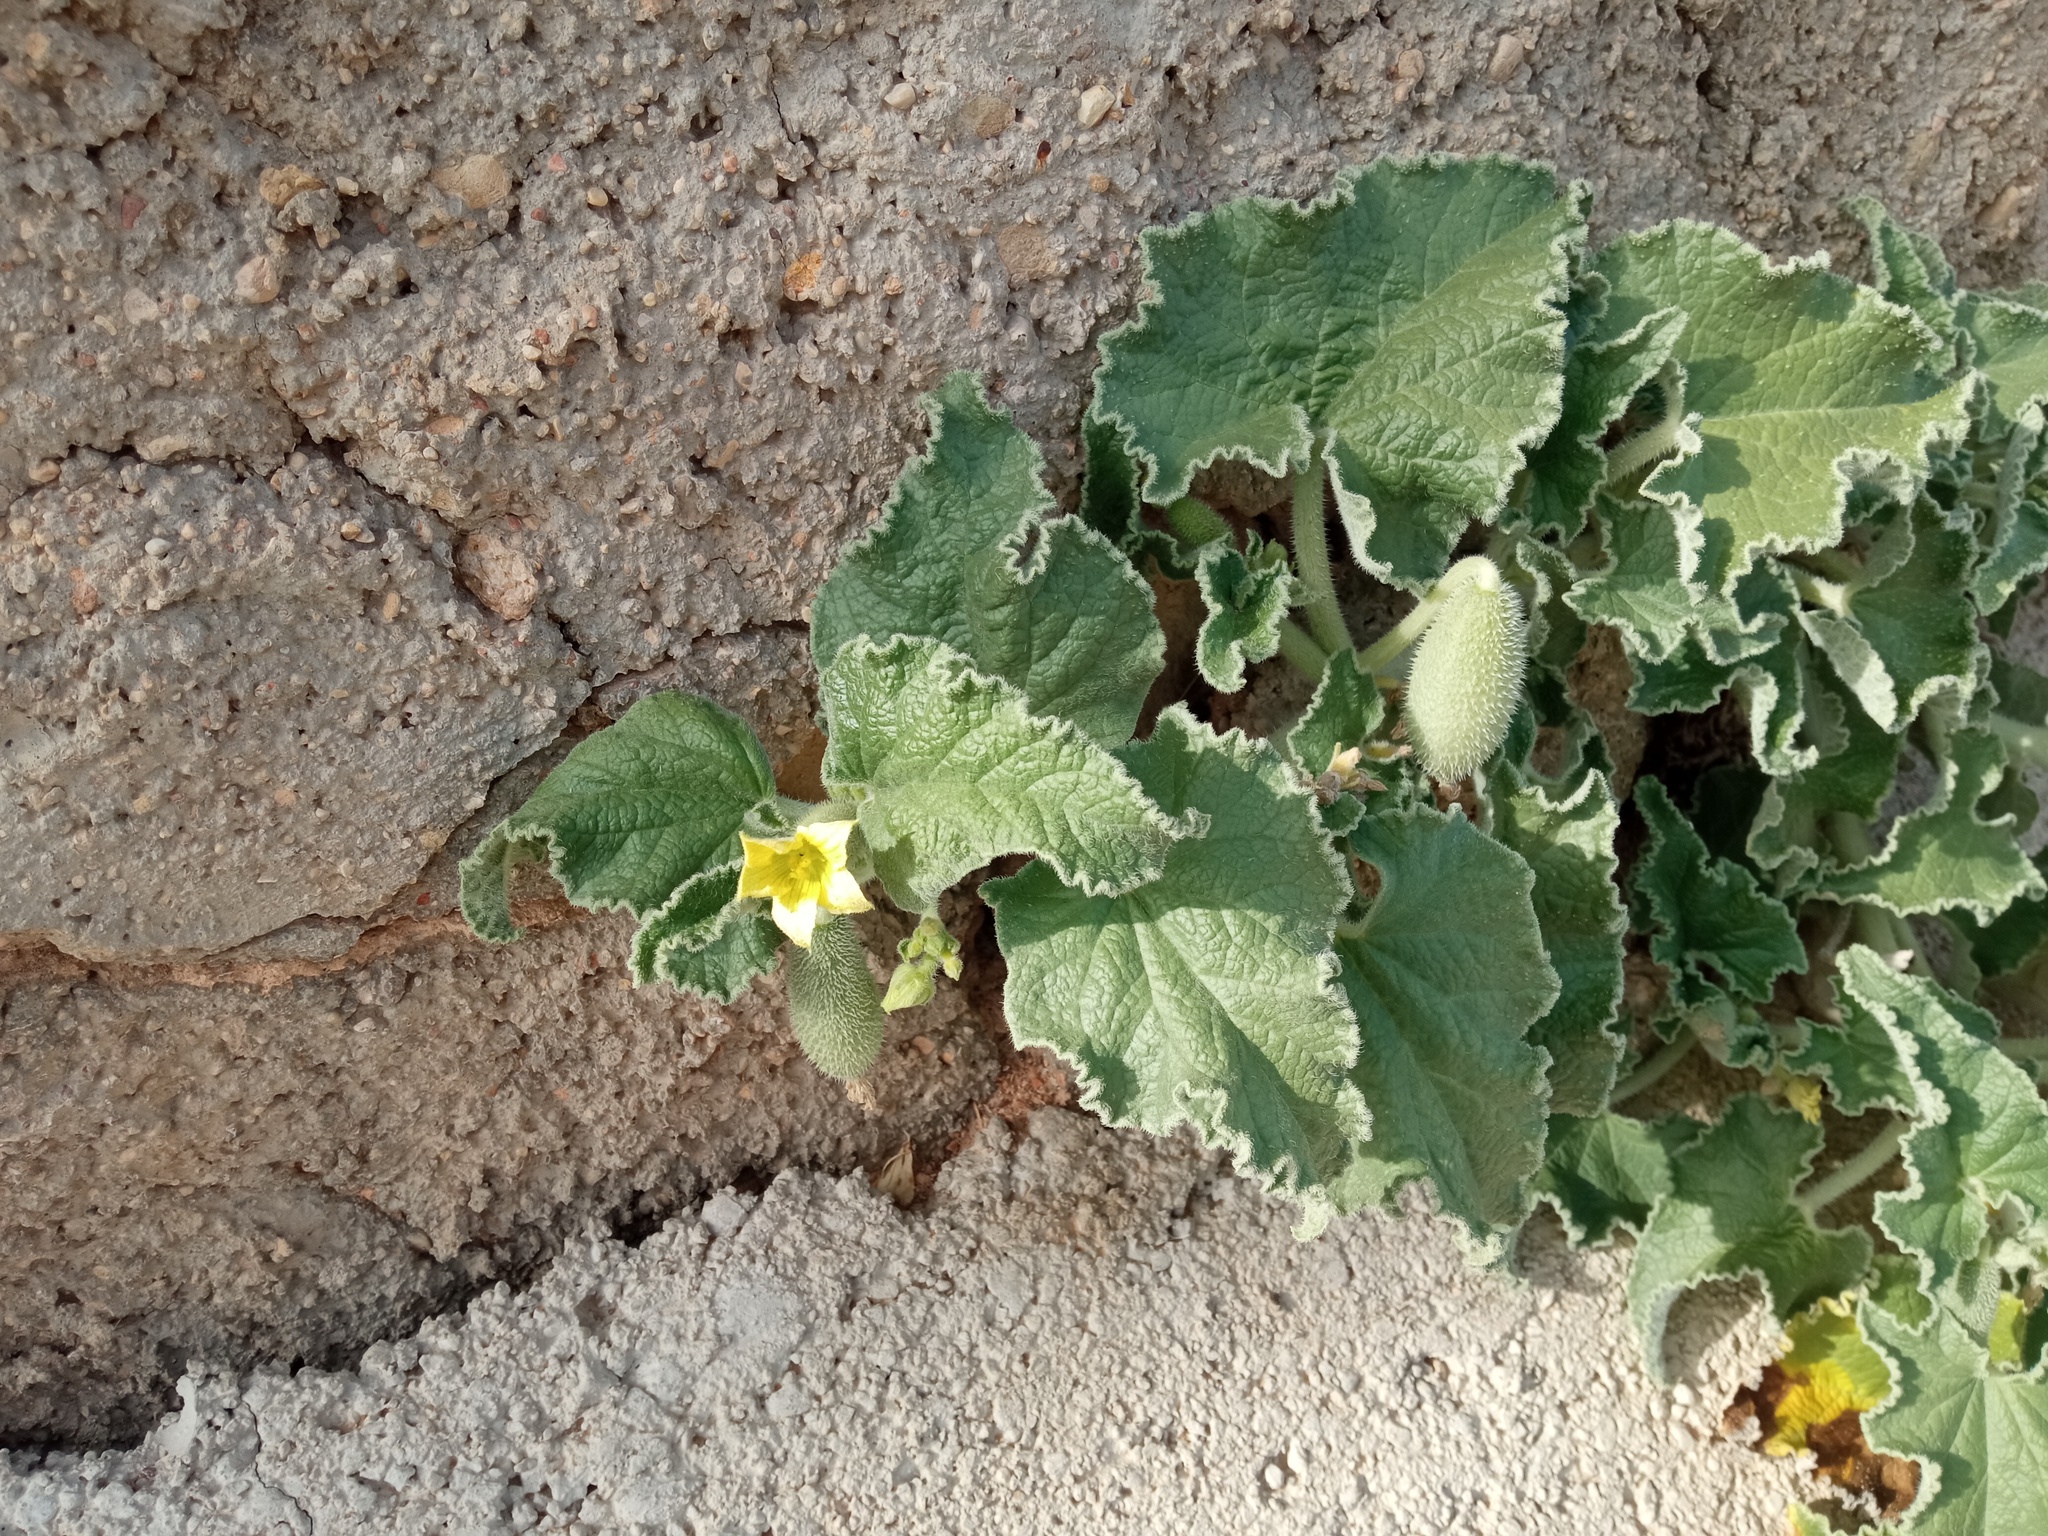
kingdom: Plantae
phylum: Tracheophyta
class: Magnoliopsida
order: Cucurbitales
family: Cucurbitaceae
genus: Ecballium
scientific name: Ecballium elaterium
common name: Squirting cucumber
